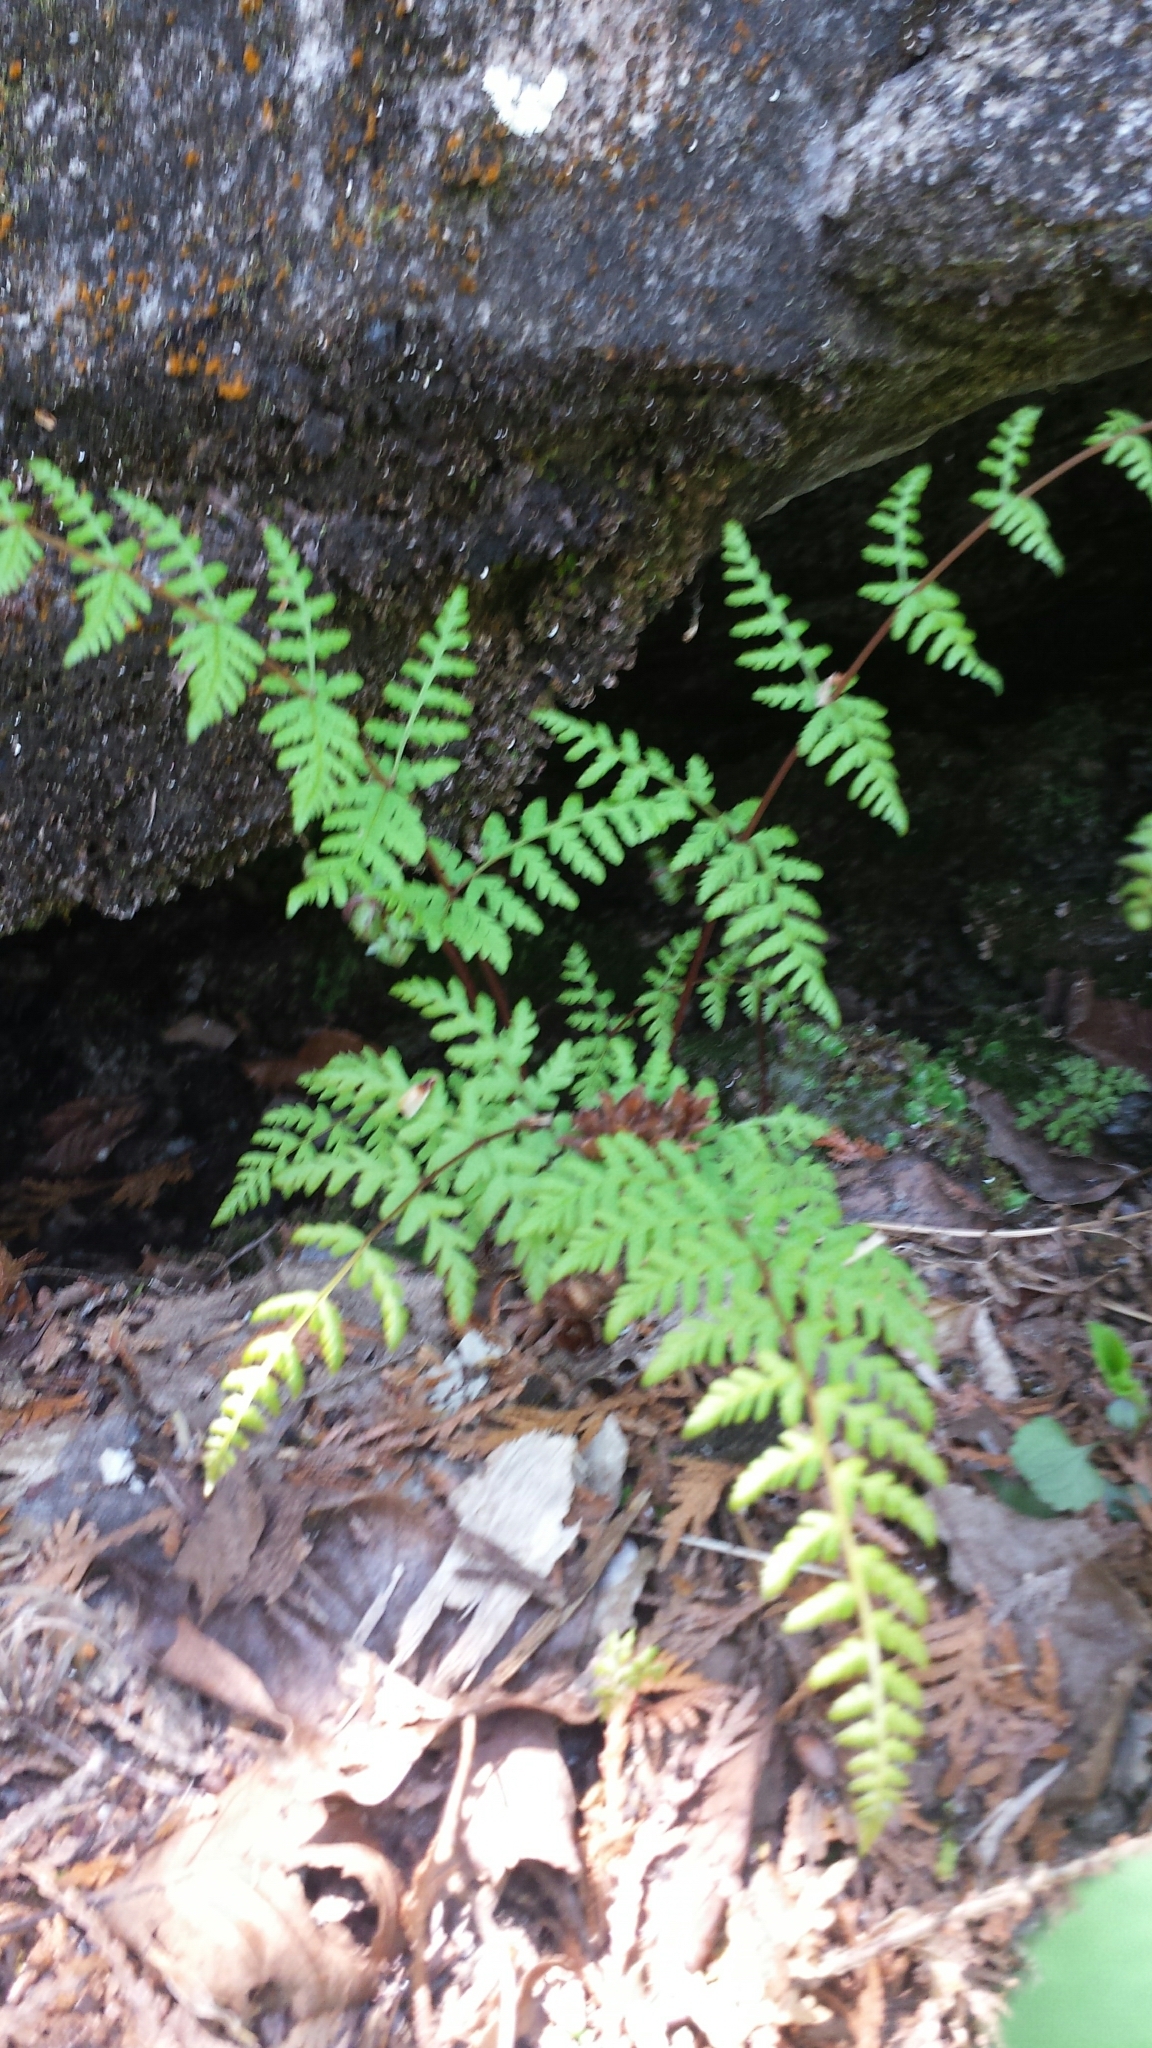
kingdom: Plantae
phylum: Tracheophyta
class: Polypodiopsida
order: Polypodiales
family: Cystopteridaceae
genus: Cystopteris
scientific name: Cystopteris bulbifera
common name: Bulblet bladder fern
